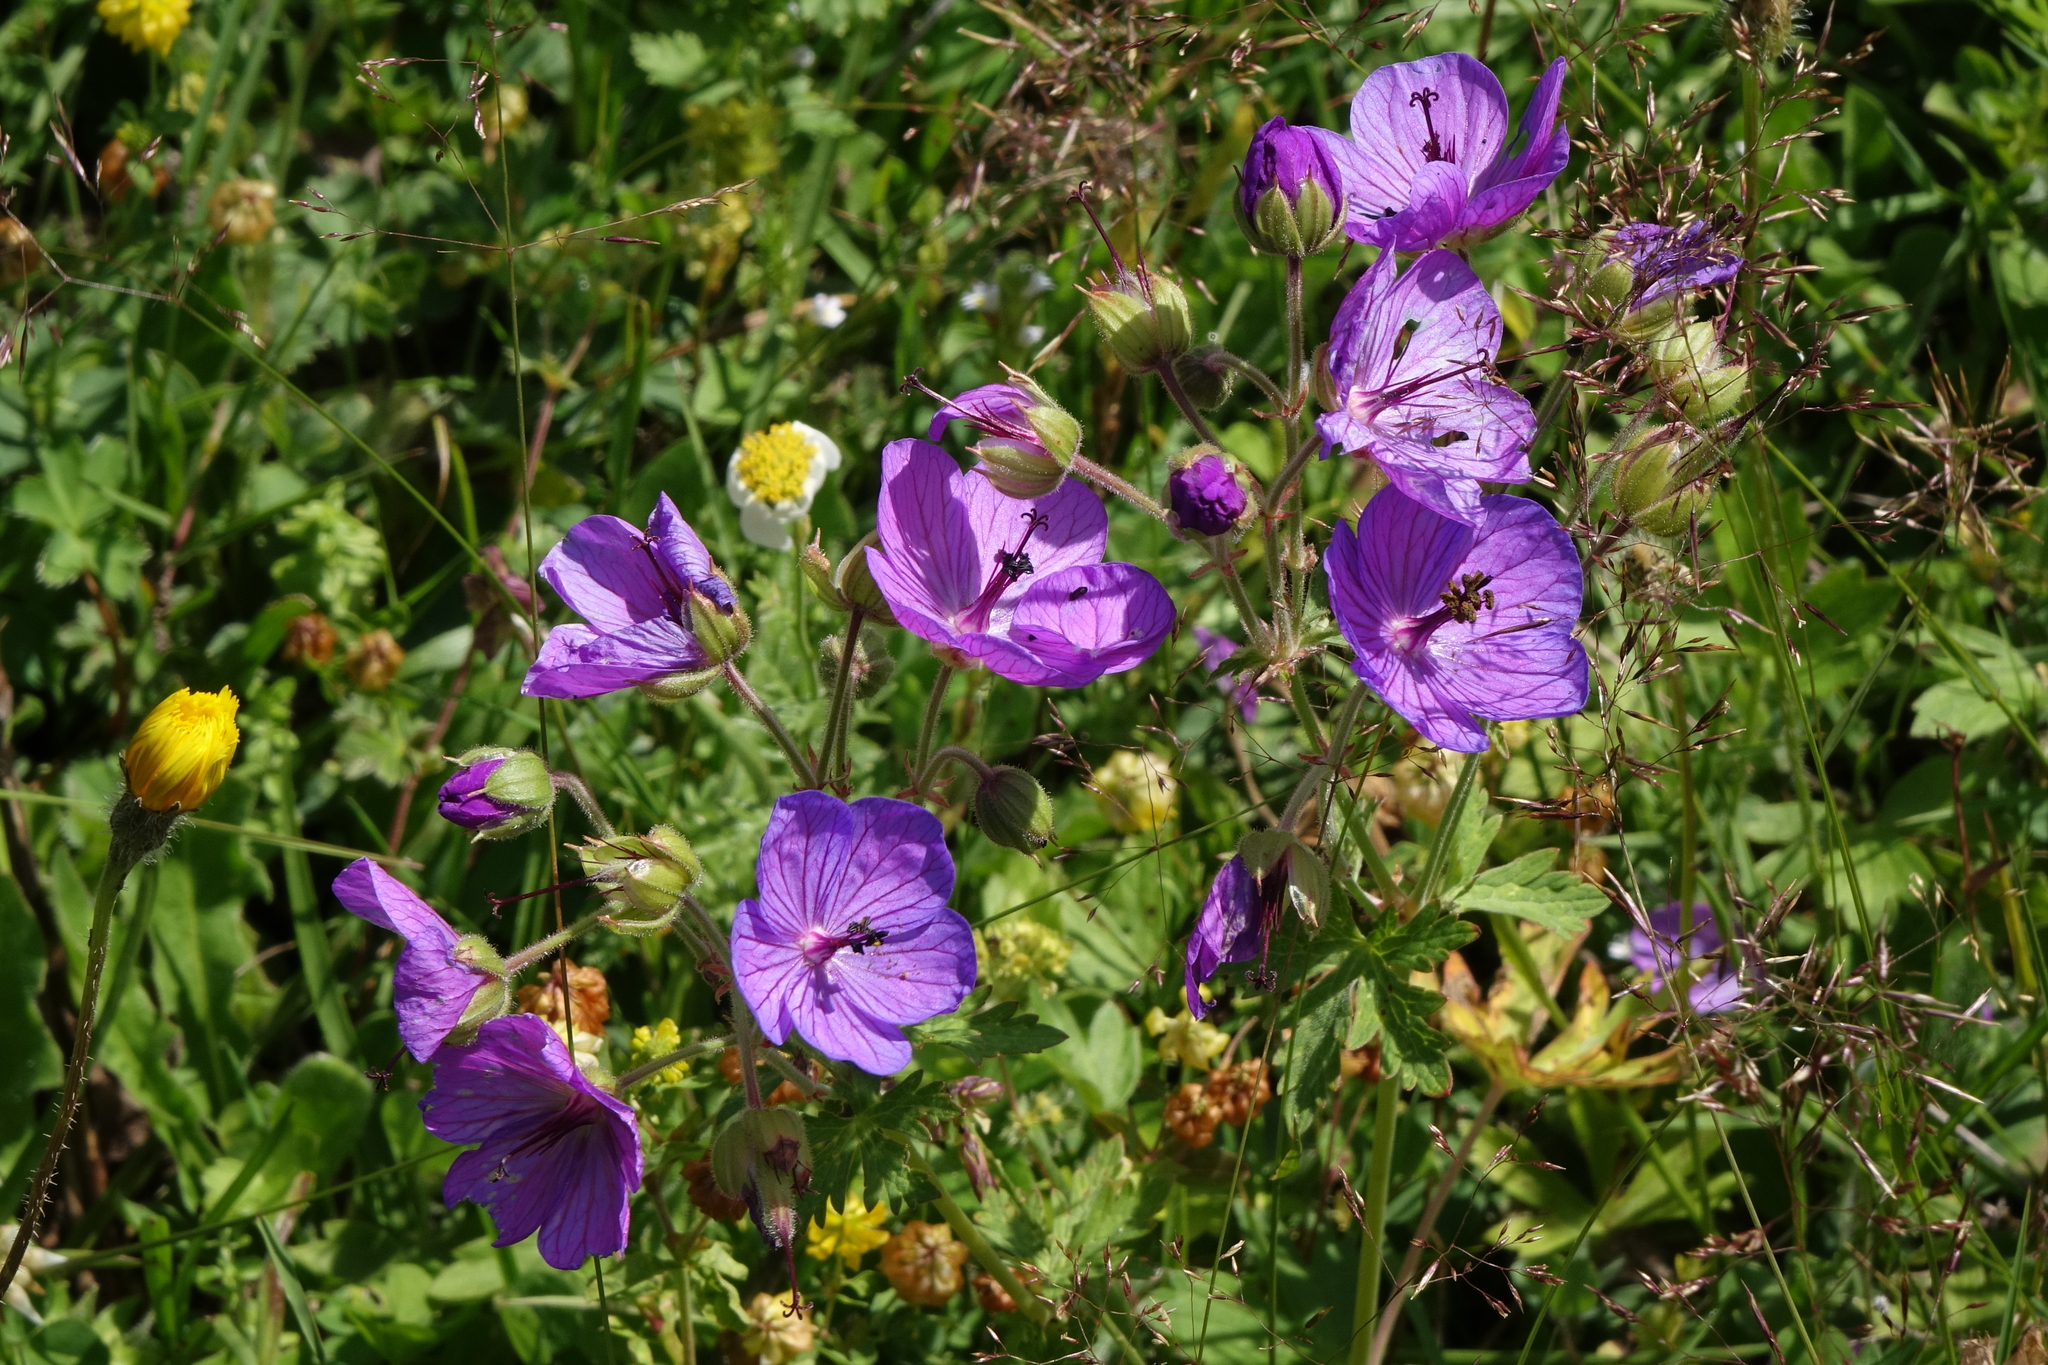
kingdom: Plantae
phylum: Tracheophyta
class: Magnoliopsida
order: Geraniales
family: Geraniaceae
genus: Geranium
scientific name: Geranium ruprechtii
